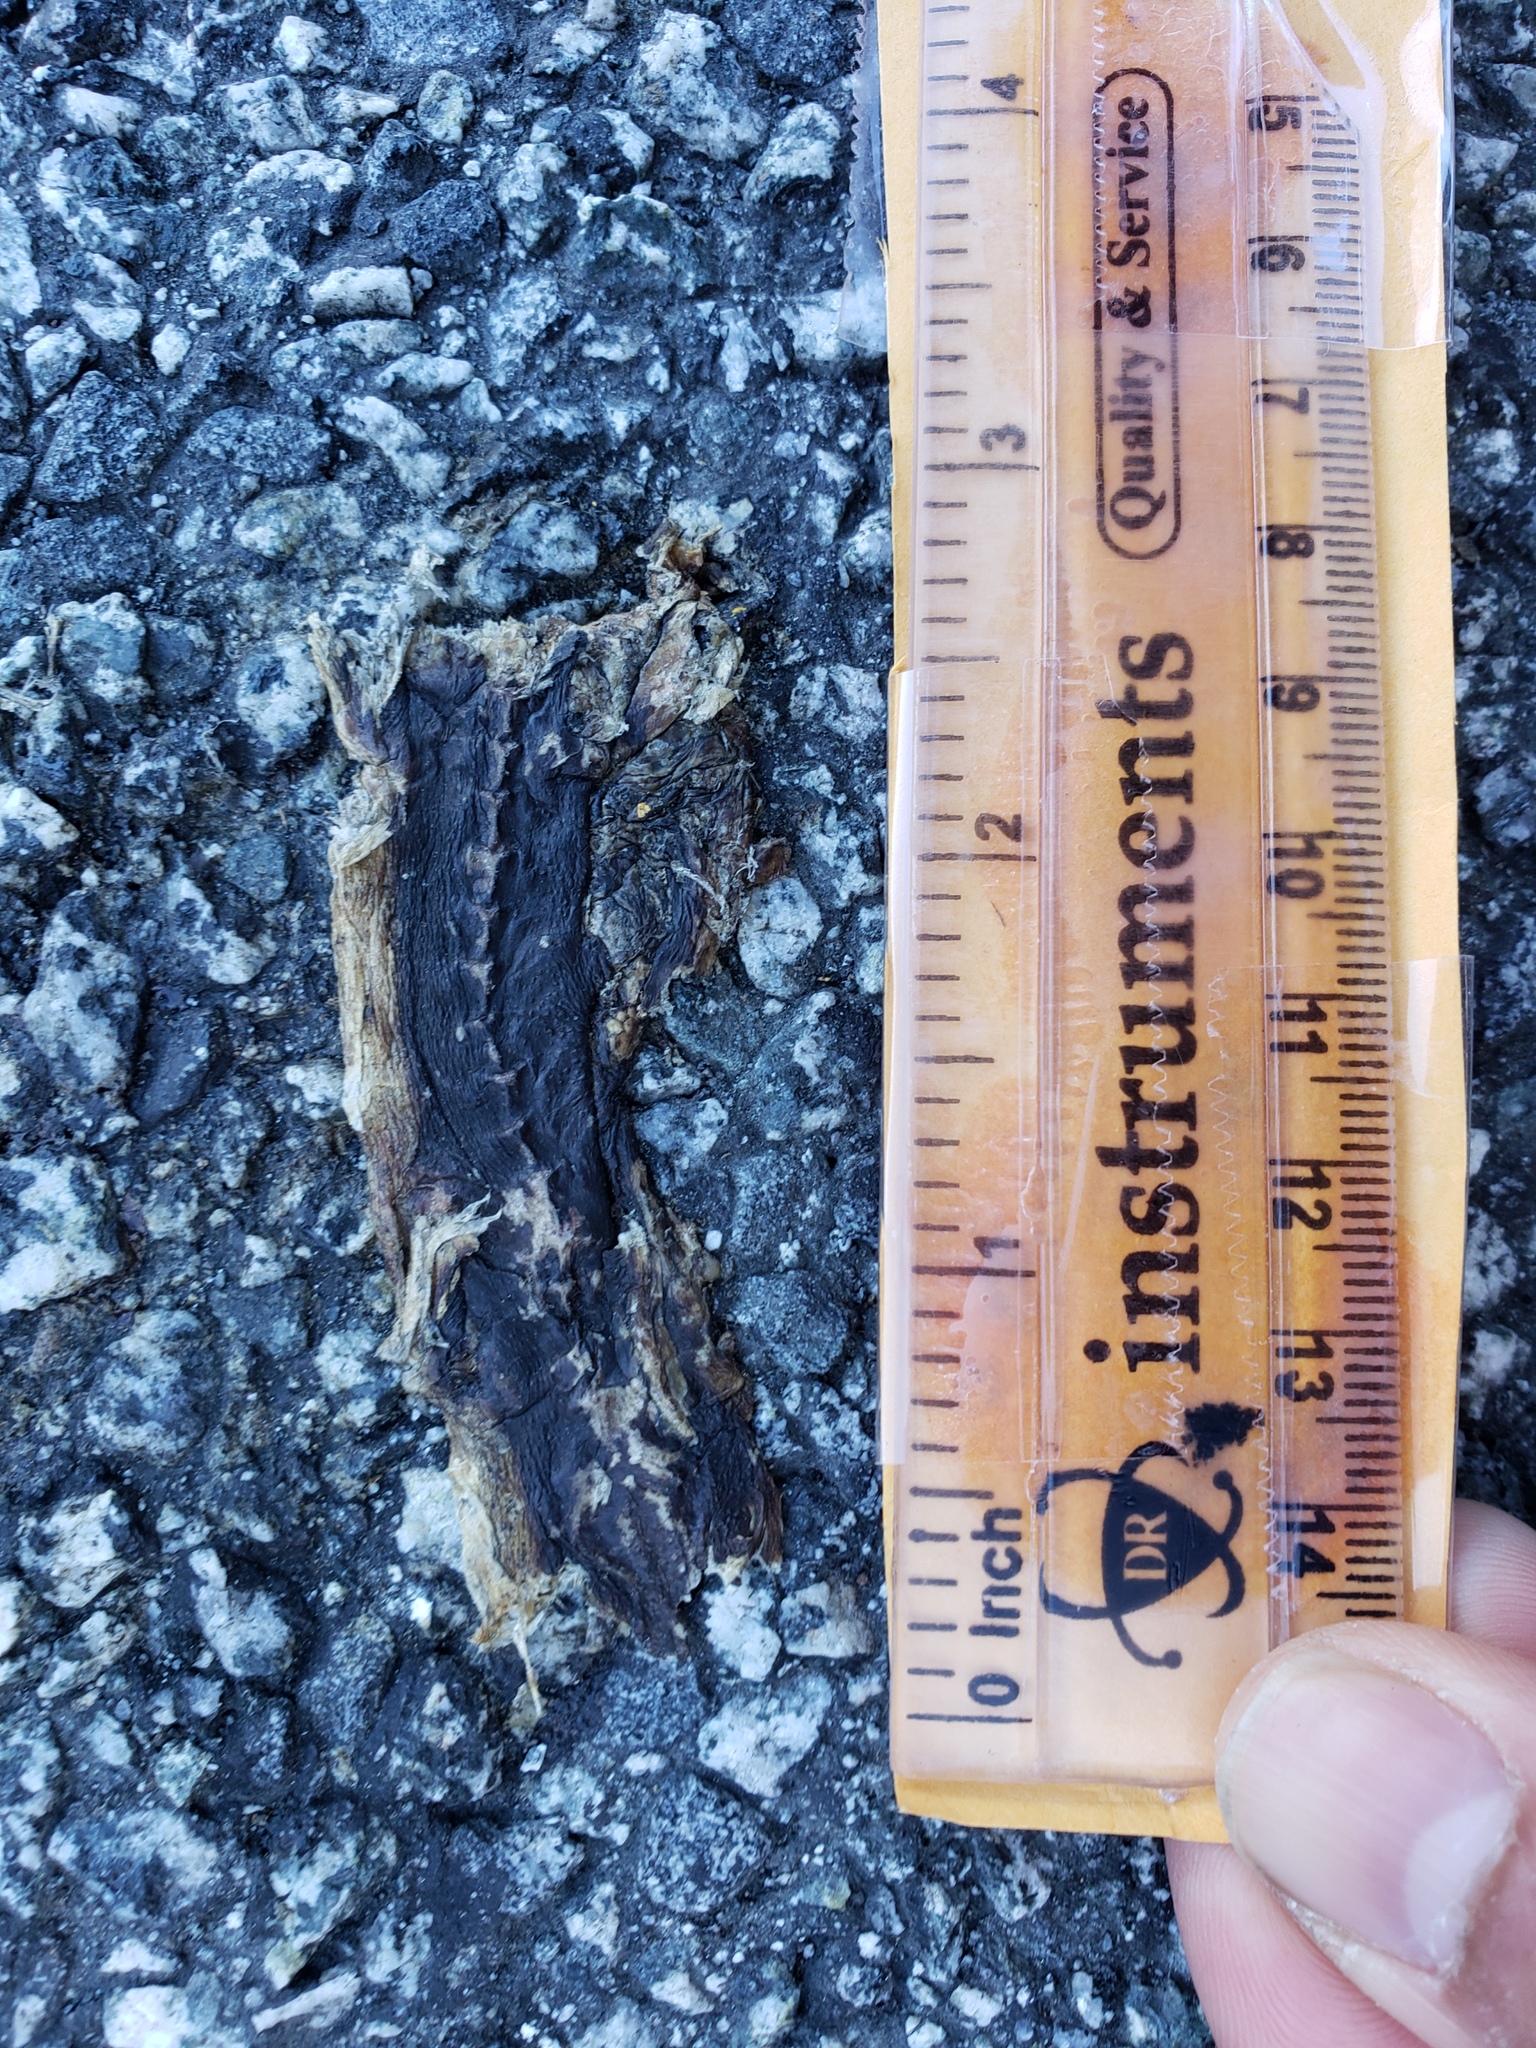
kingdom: Animalia
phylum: Chordata
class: Amphibia
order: Caudata
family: Salamandridae
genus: Taricha
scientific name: Taricha
